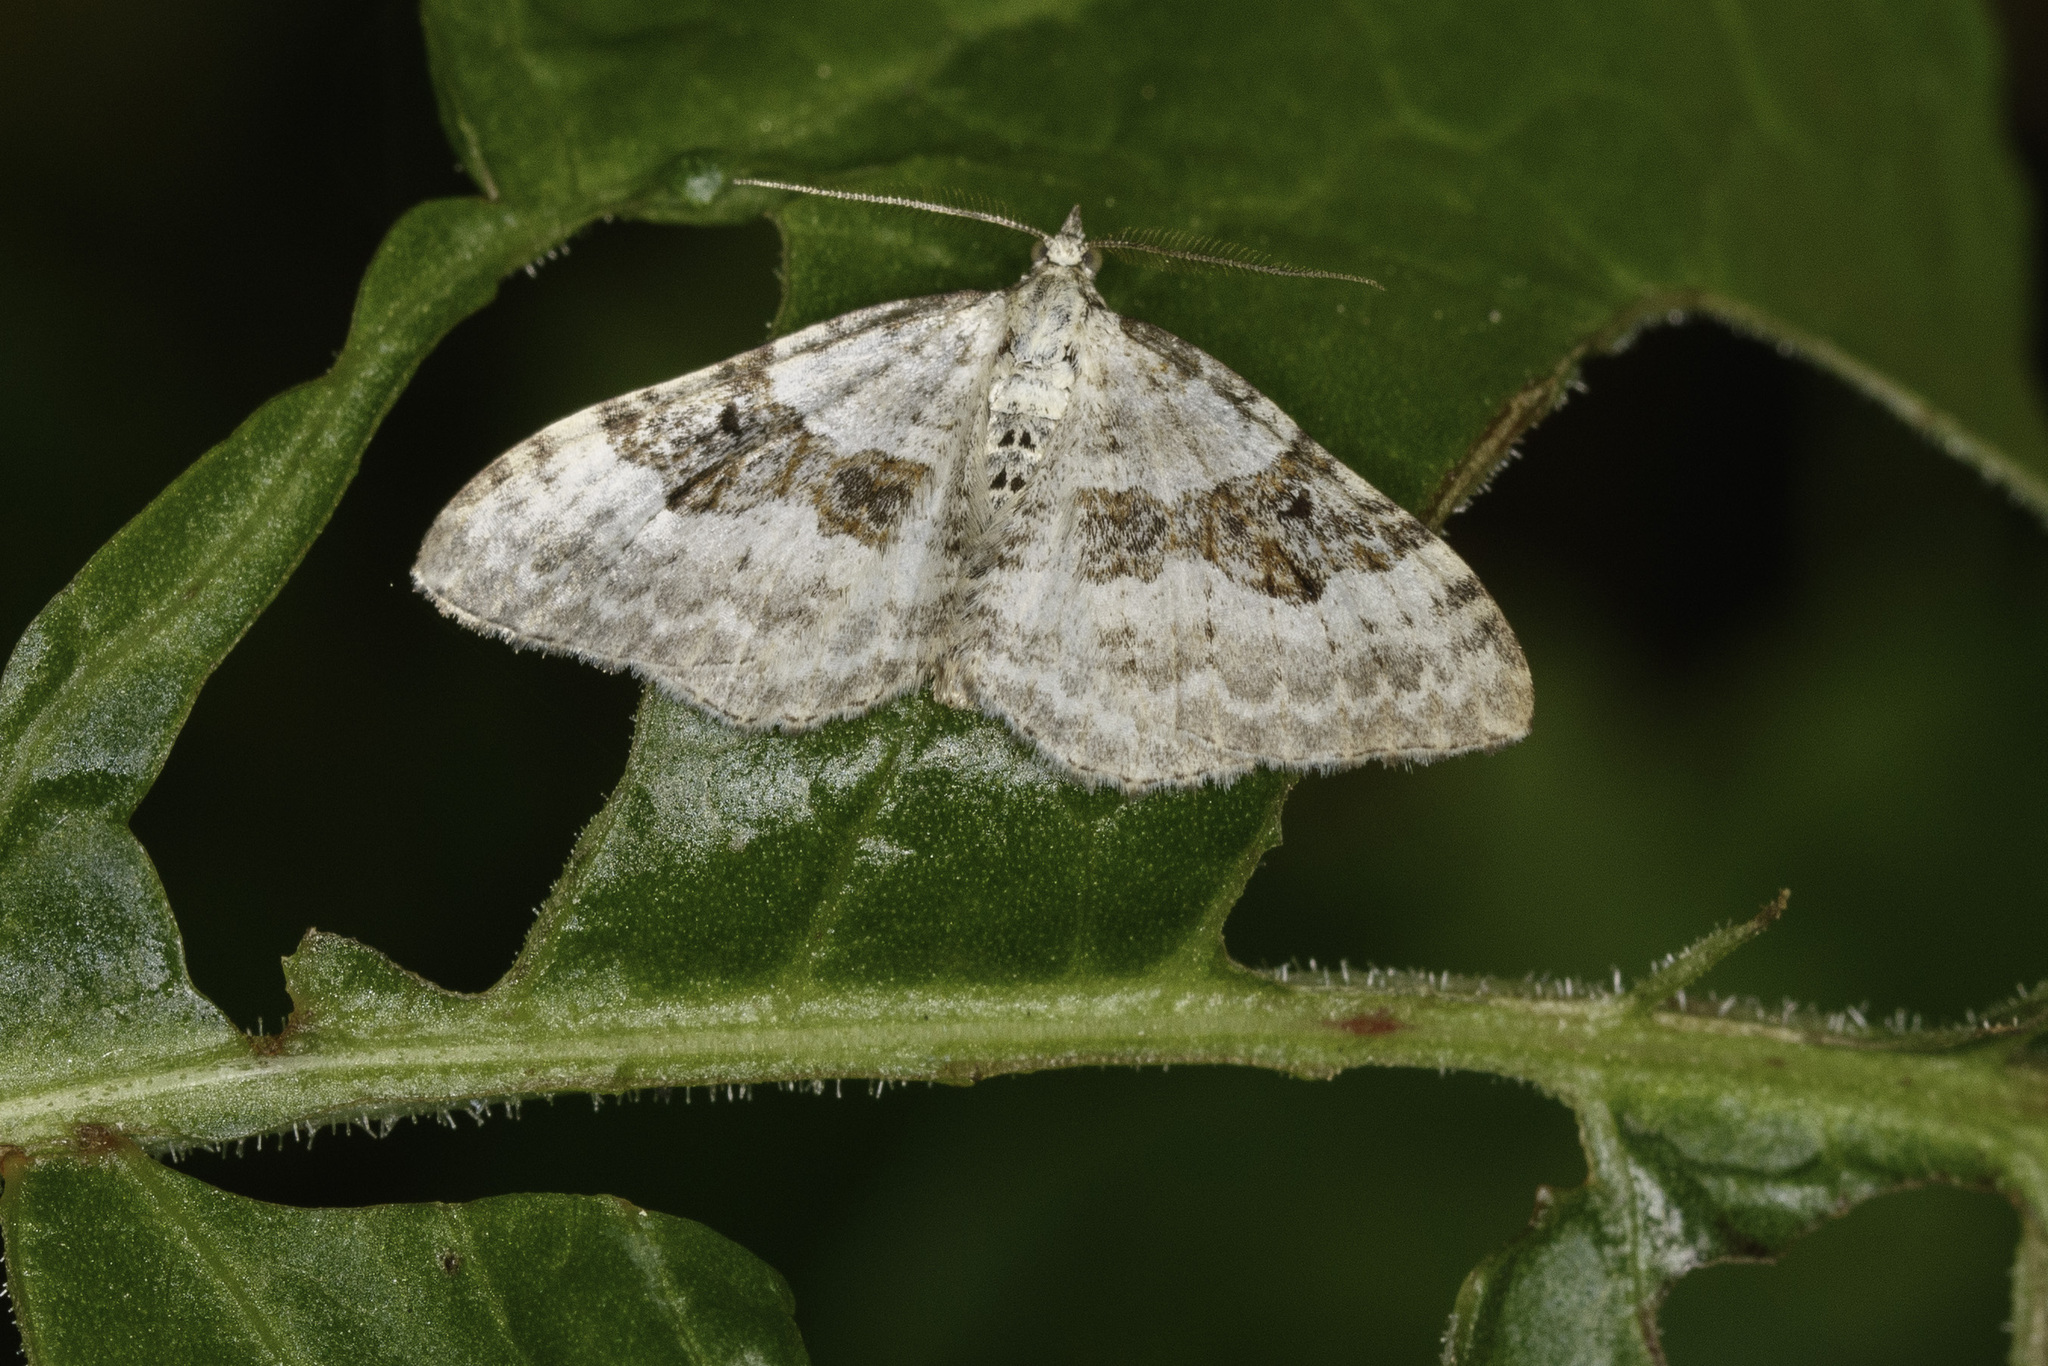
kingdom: Animalia
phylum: Arthropoda
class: Insecta
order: Lepidoptera
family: Geometridae
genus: Xanthorhoe
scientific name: Xanthorhoe montanata
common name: Silver-ground carpet
